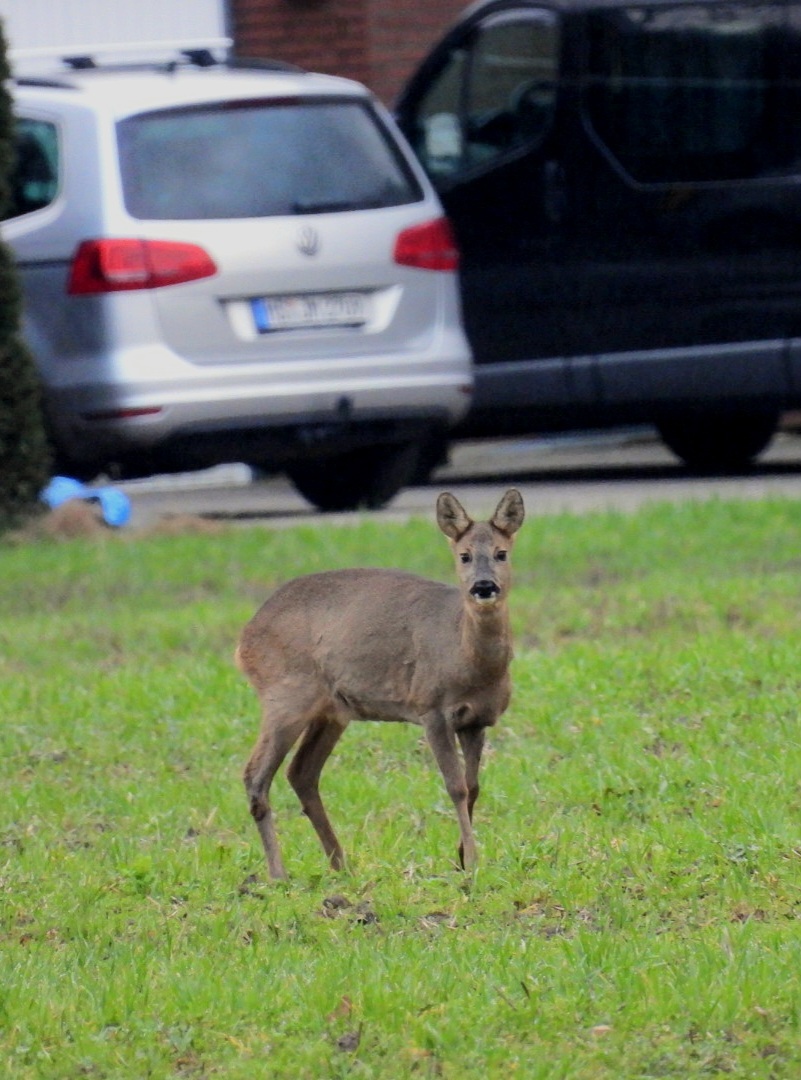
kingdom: Animalia
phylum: Chordata
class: Mammalia
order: Artiodactyla
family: Cervidae
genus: Capreolus
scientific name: Capreolus capreolus
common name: Western roe deer
